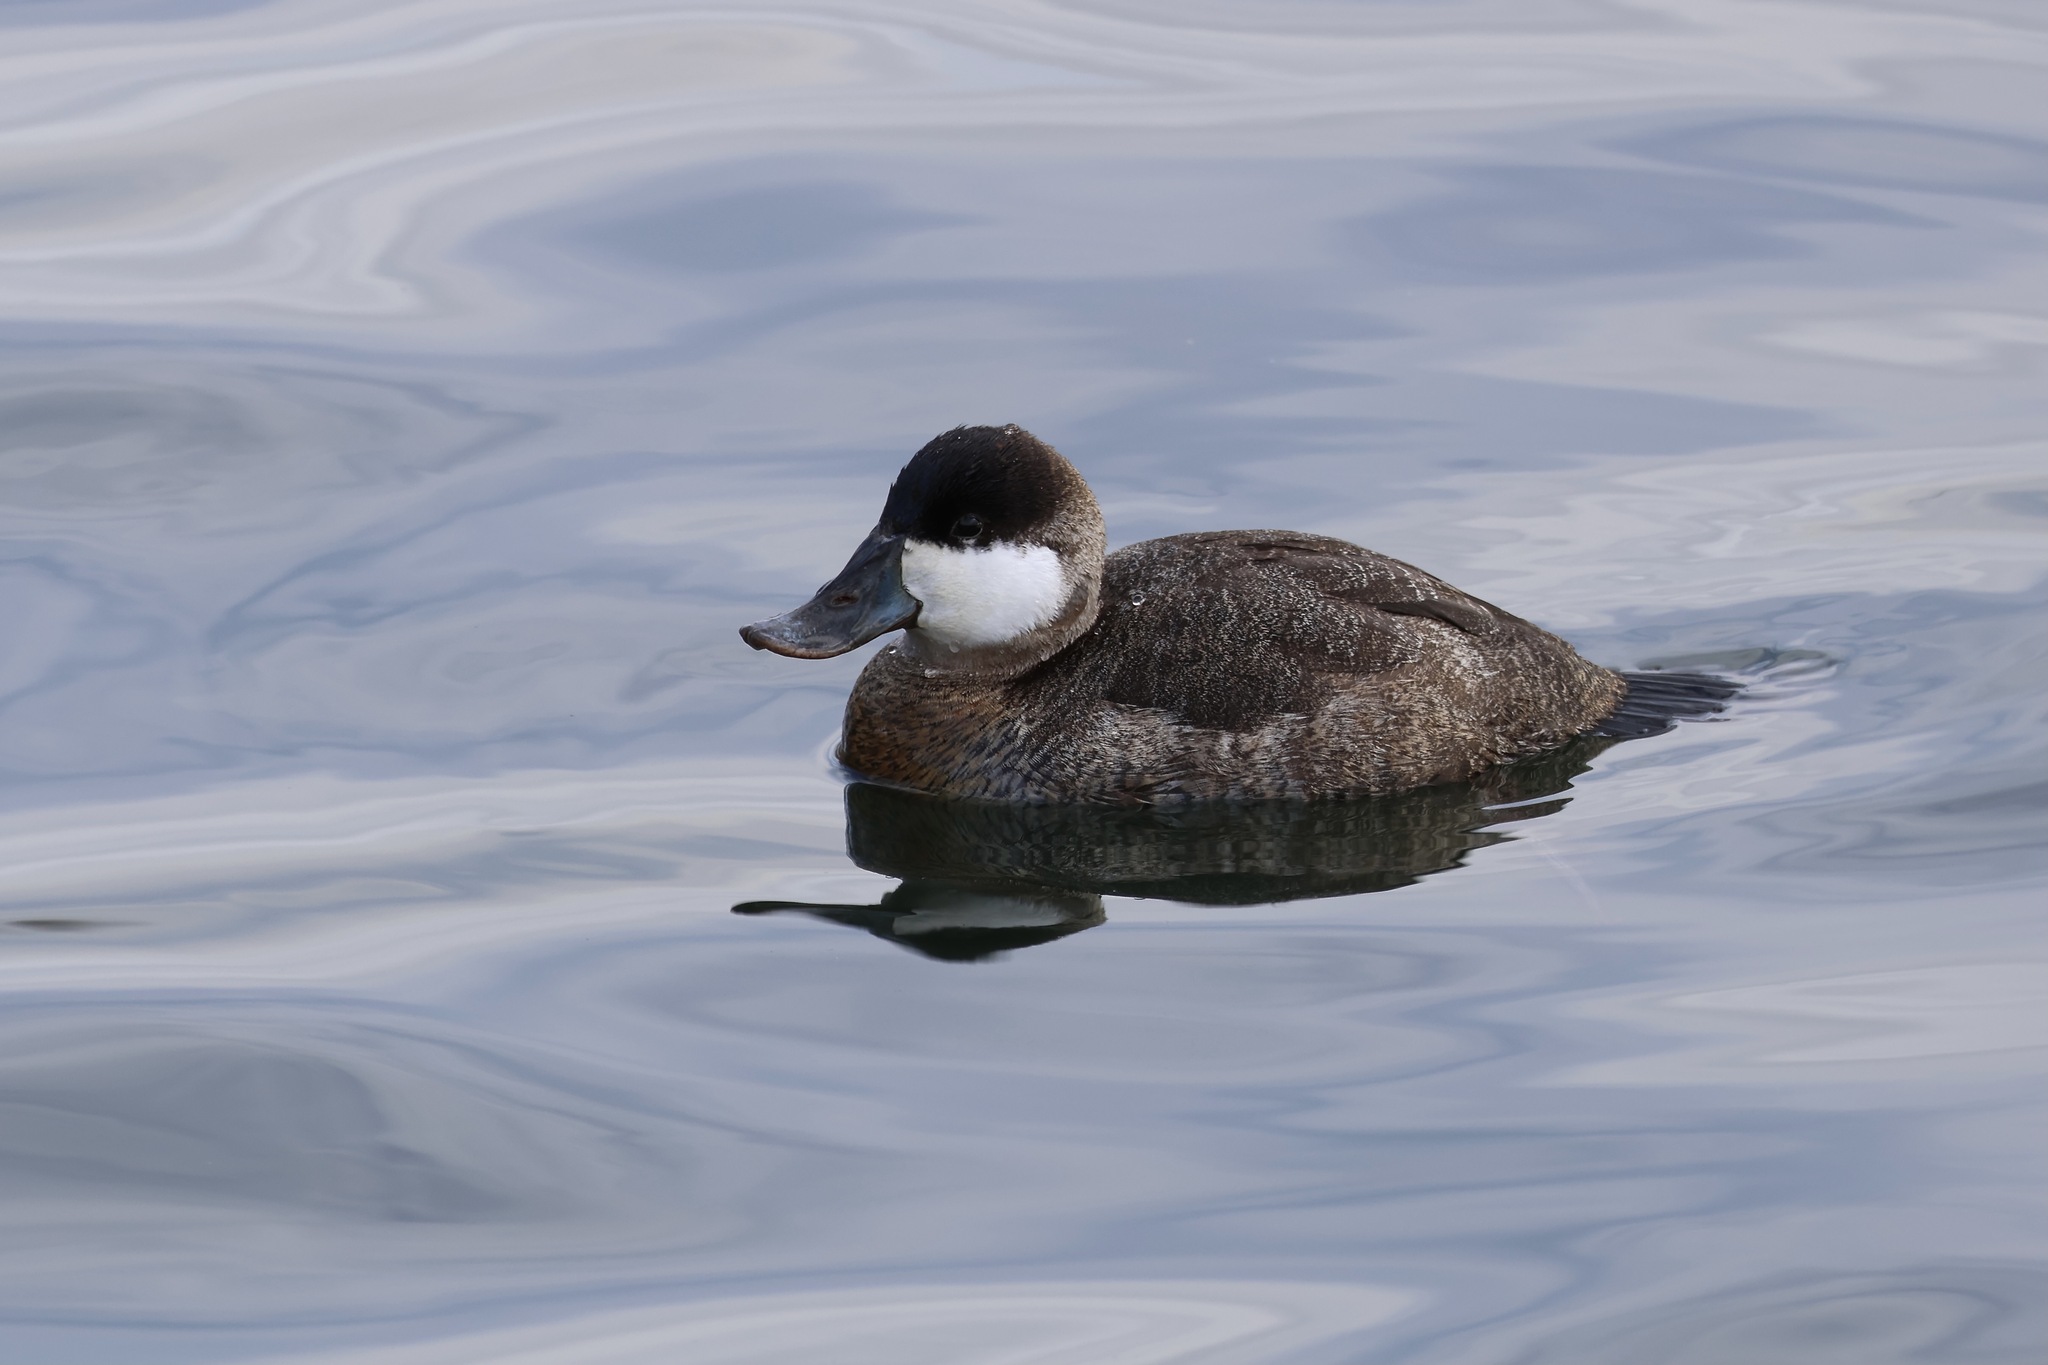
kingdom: Animalia
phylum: Chordata
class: Aves
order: Anseriformes
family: Anatidae
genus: Oxyura
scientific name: Oxyura jamaicensis
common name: Ruddy duck
